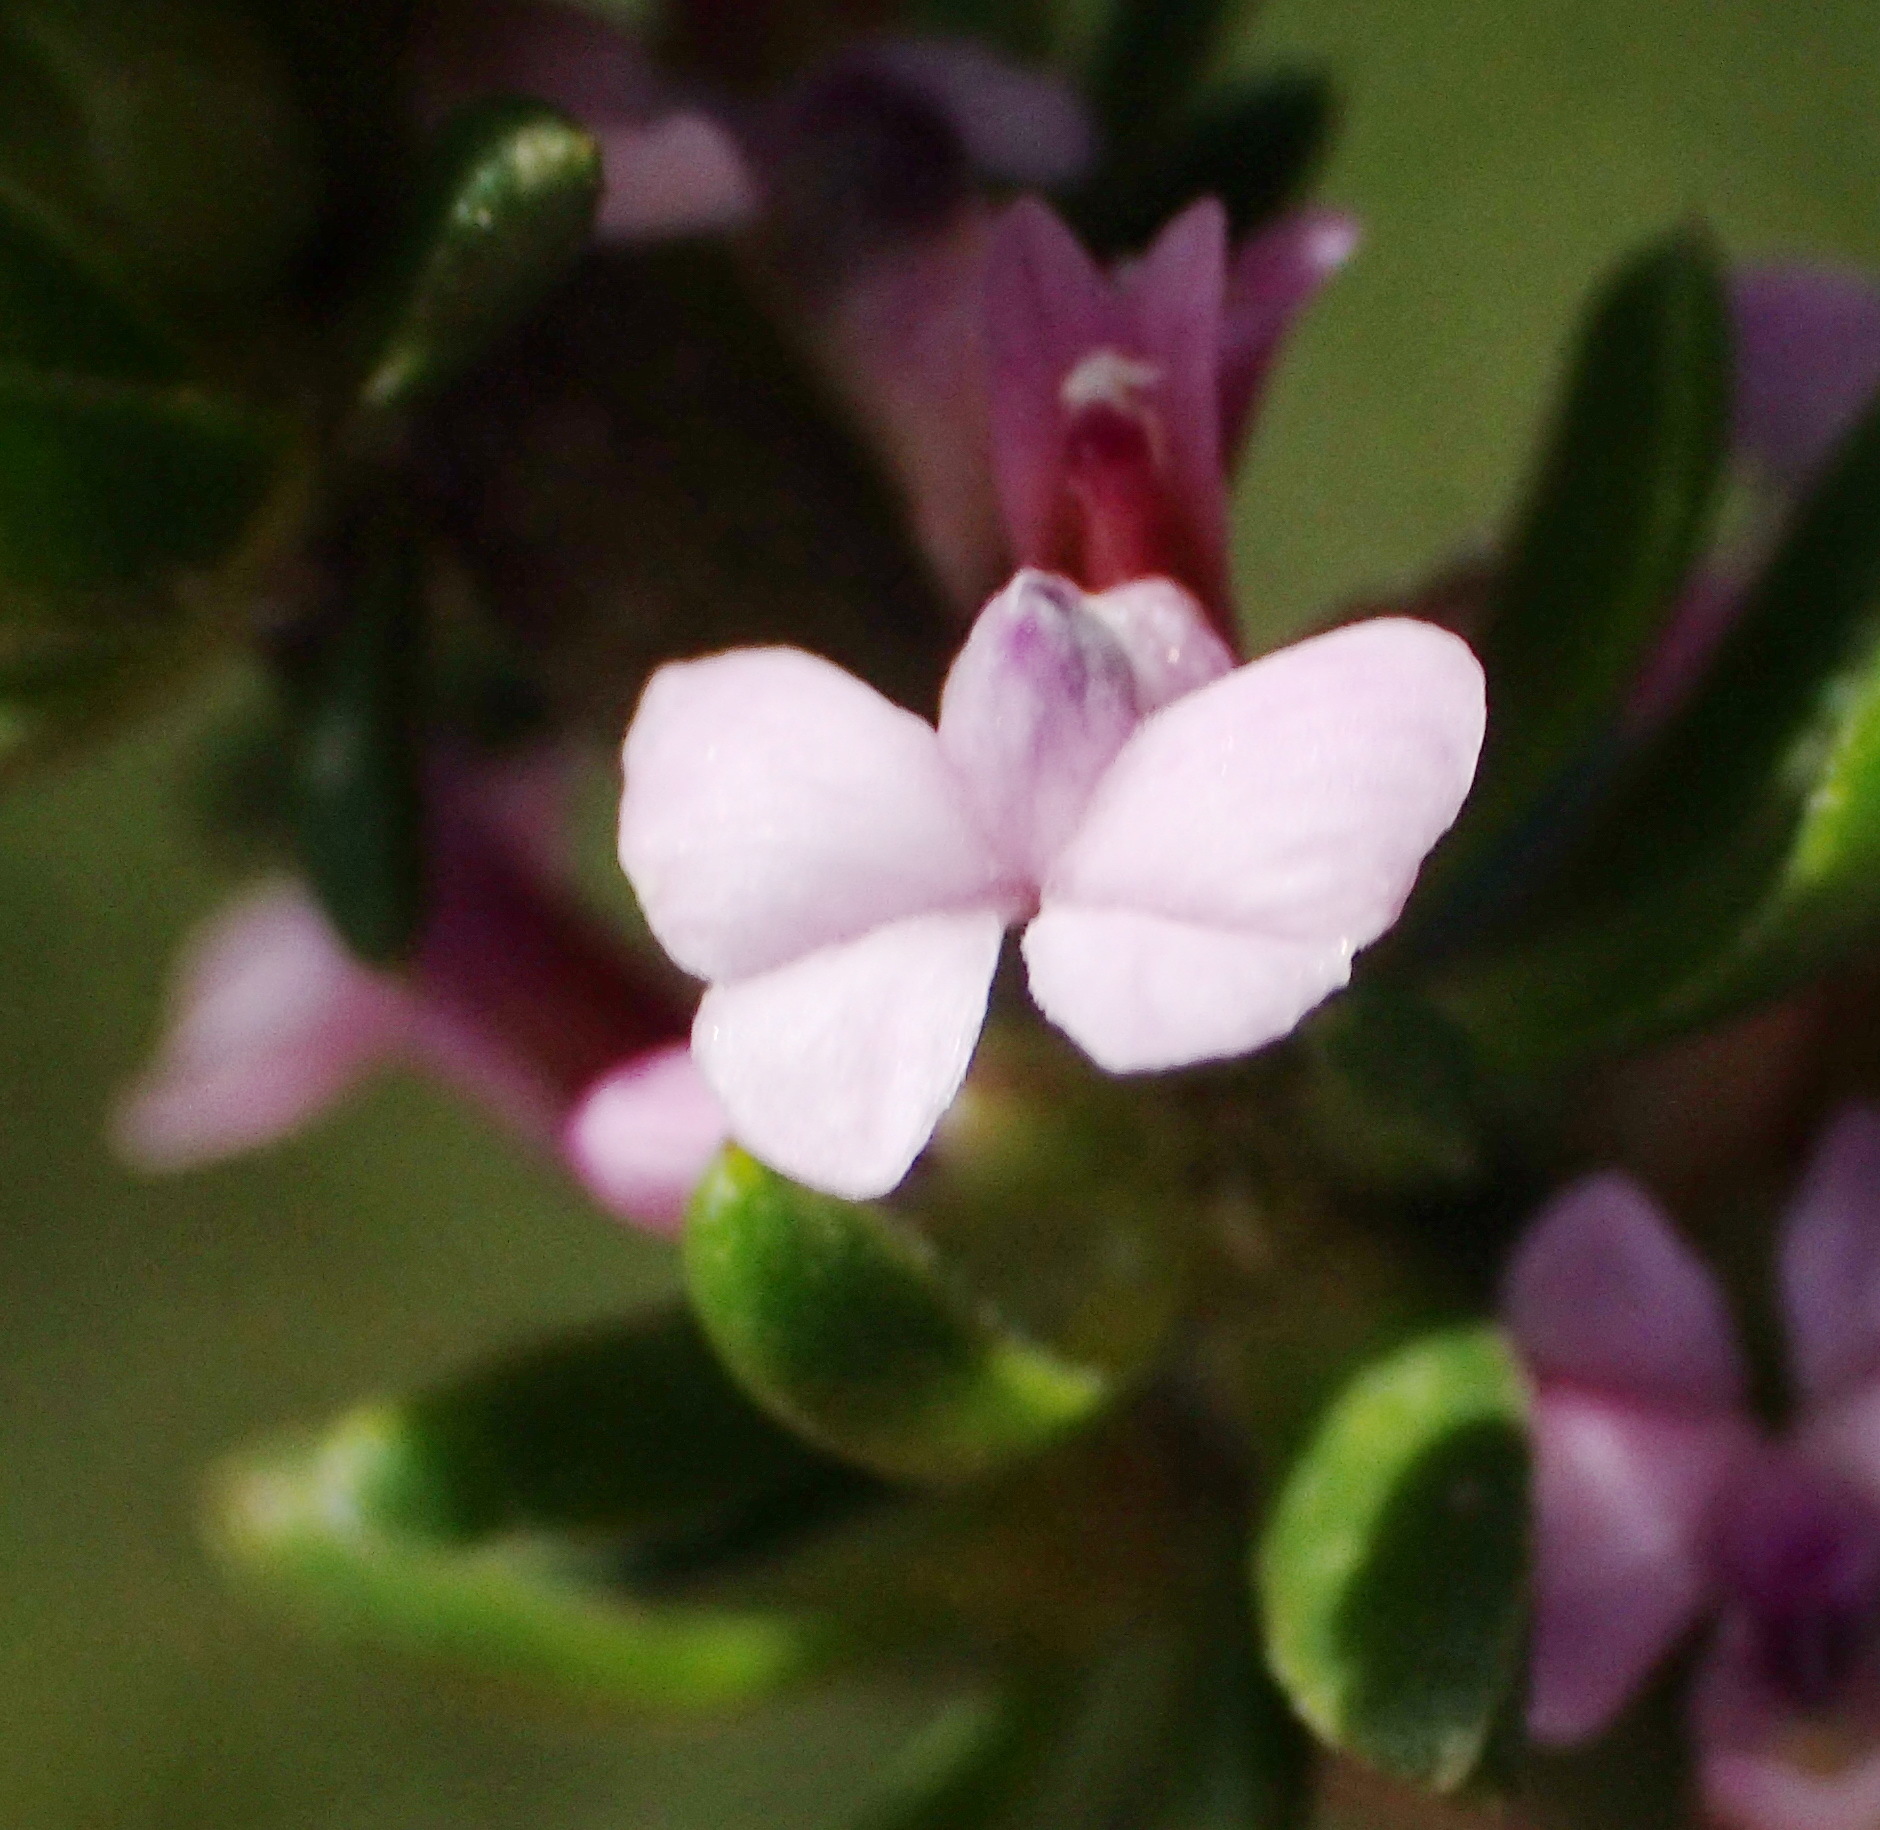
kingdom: Plantae
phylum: Tracheophyta
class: Magnoliopsida
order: Fabales
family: Polygalaceae
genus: Muraltia
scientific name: Muraltia satureioides
